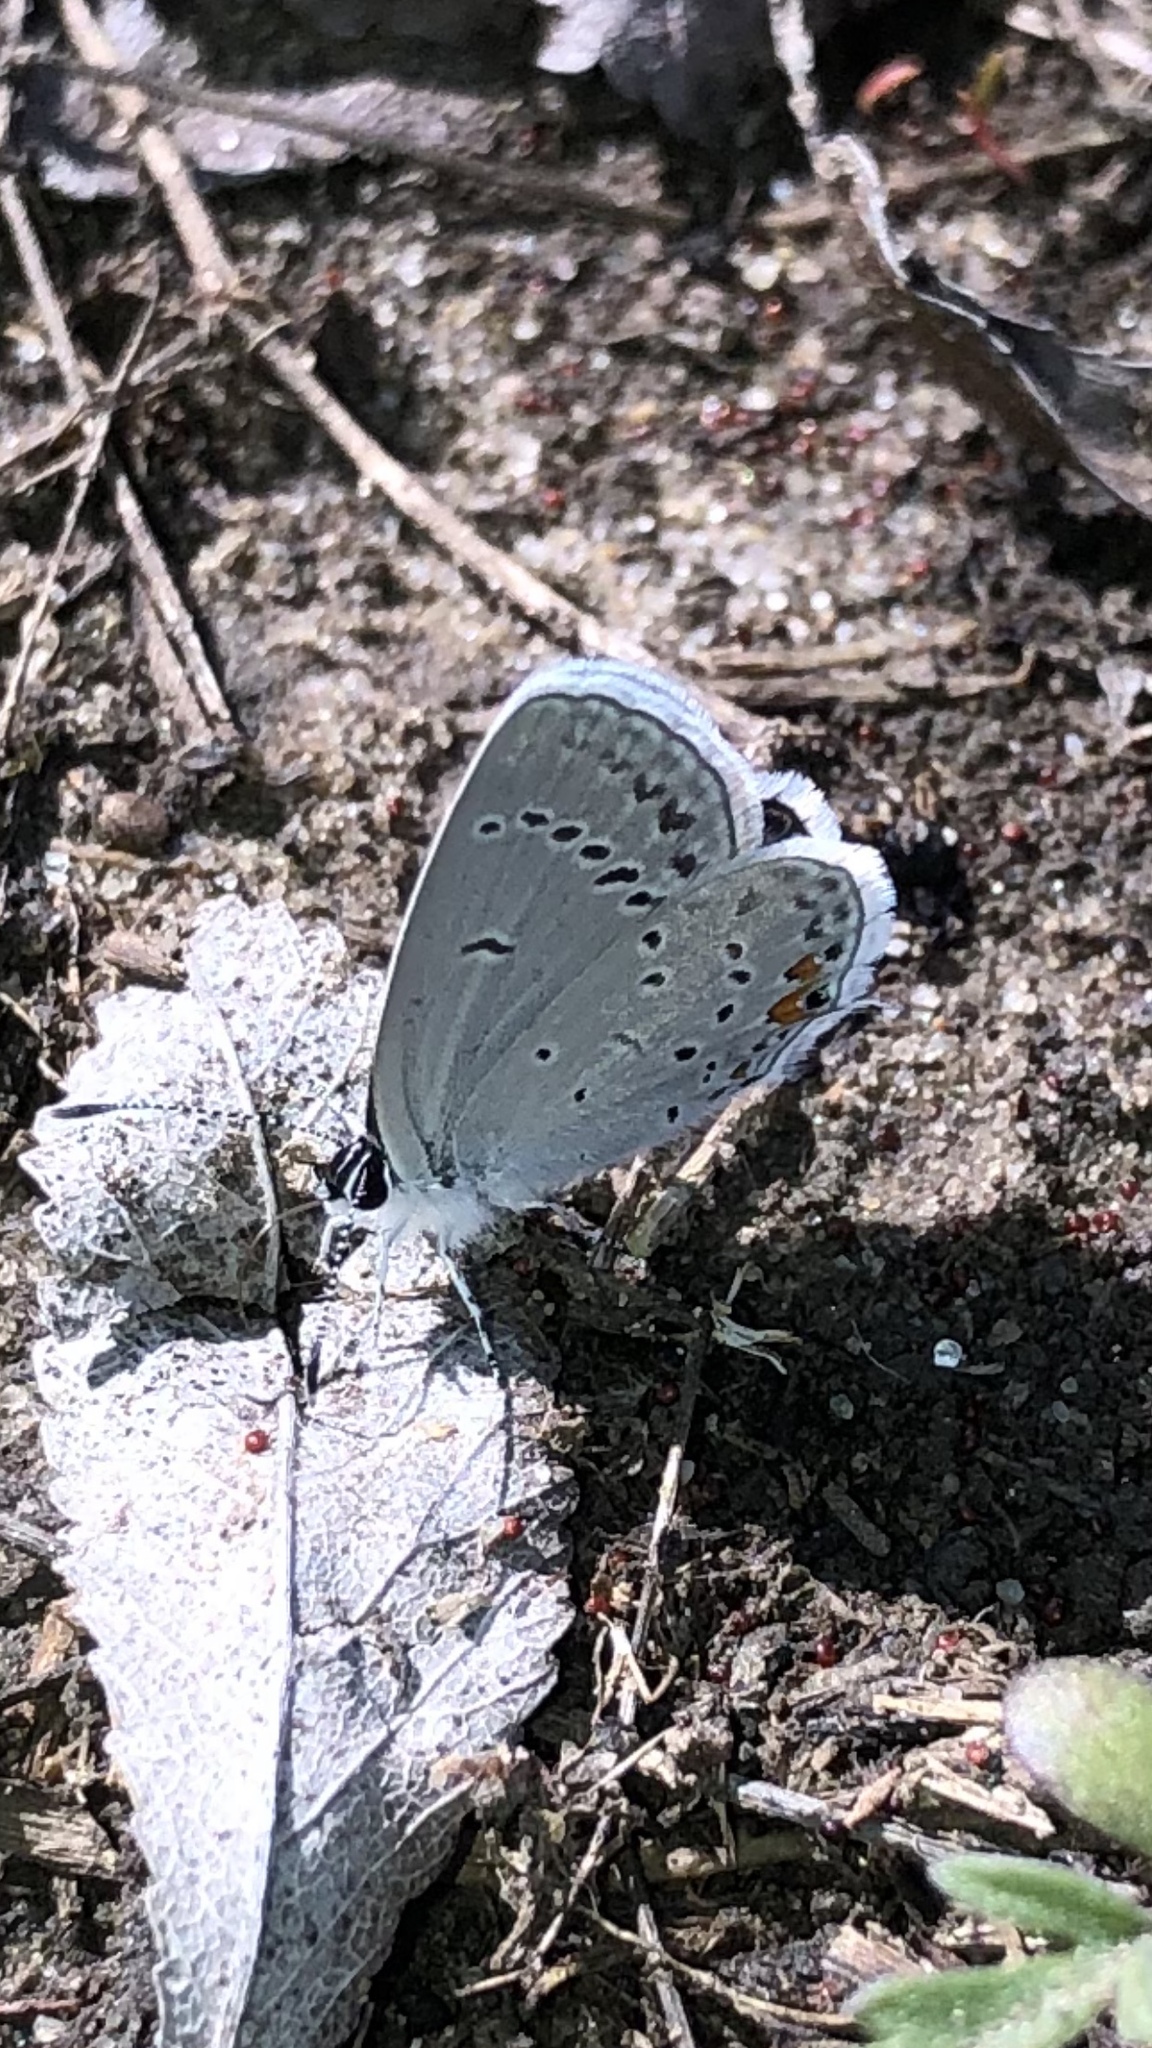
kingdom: Animalia
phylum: Arthropoda
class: Insecta
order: Lepidoptera
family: Lycaenidae
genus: Elkalyce
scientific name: Elkalyce comyntas
